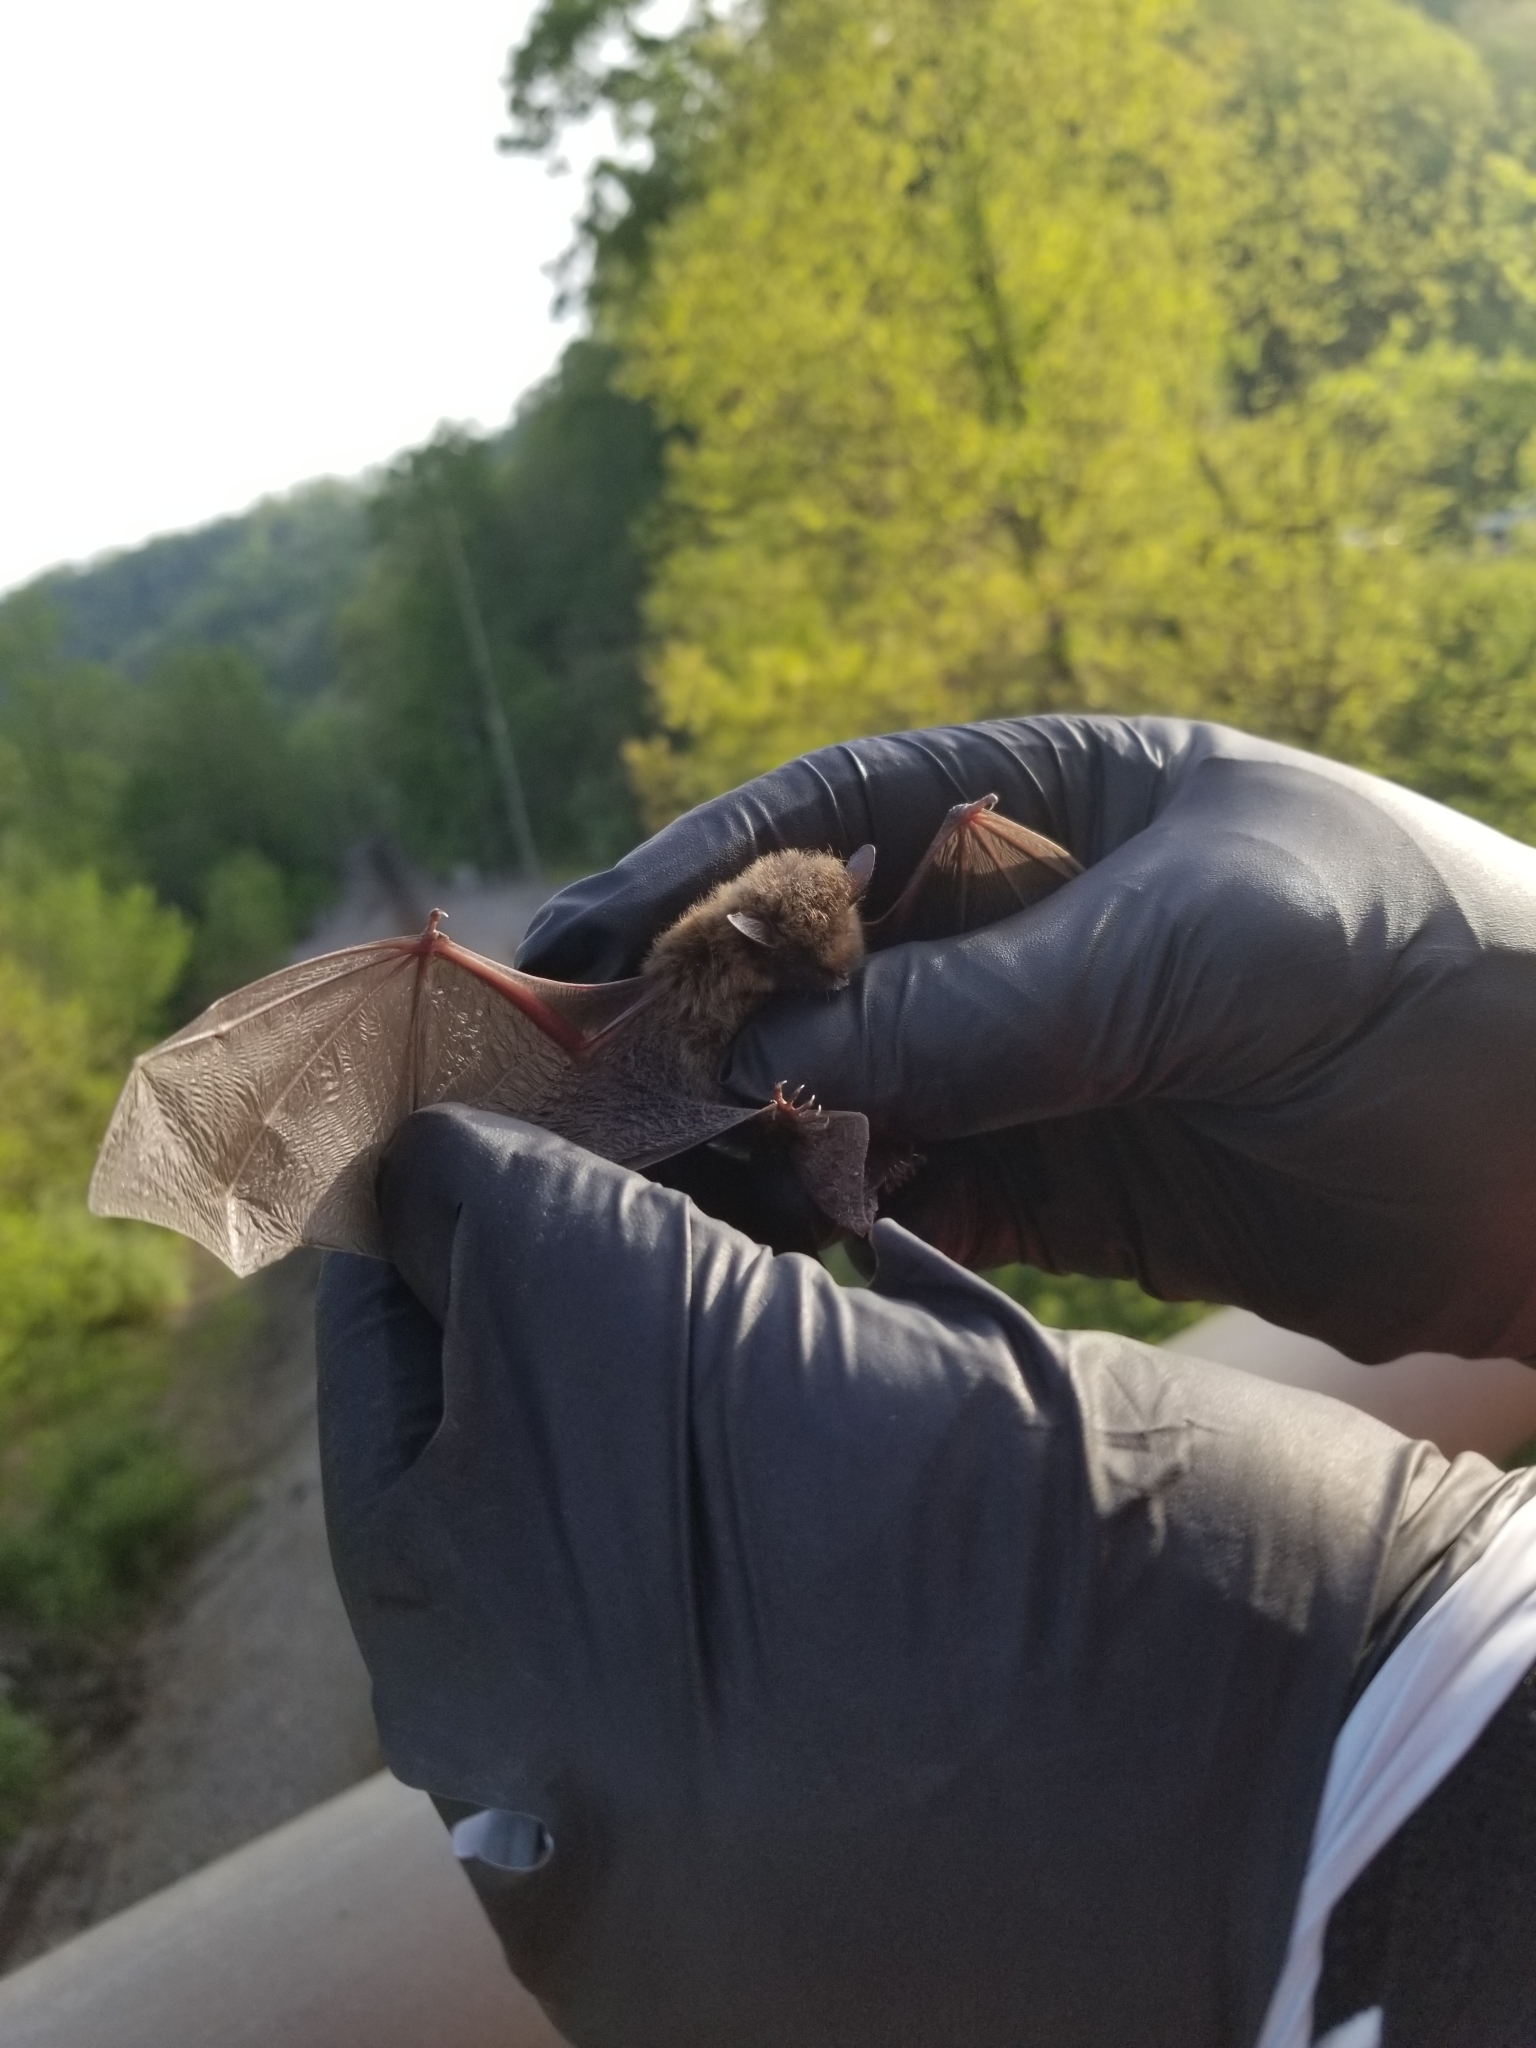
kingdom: Animalia
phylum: Chordata
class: Mammalia
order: Chiroptera
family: Vespertilionidae
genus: Myotis
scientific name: Myotis leibii
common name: Eastern small-footed myotis
